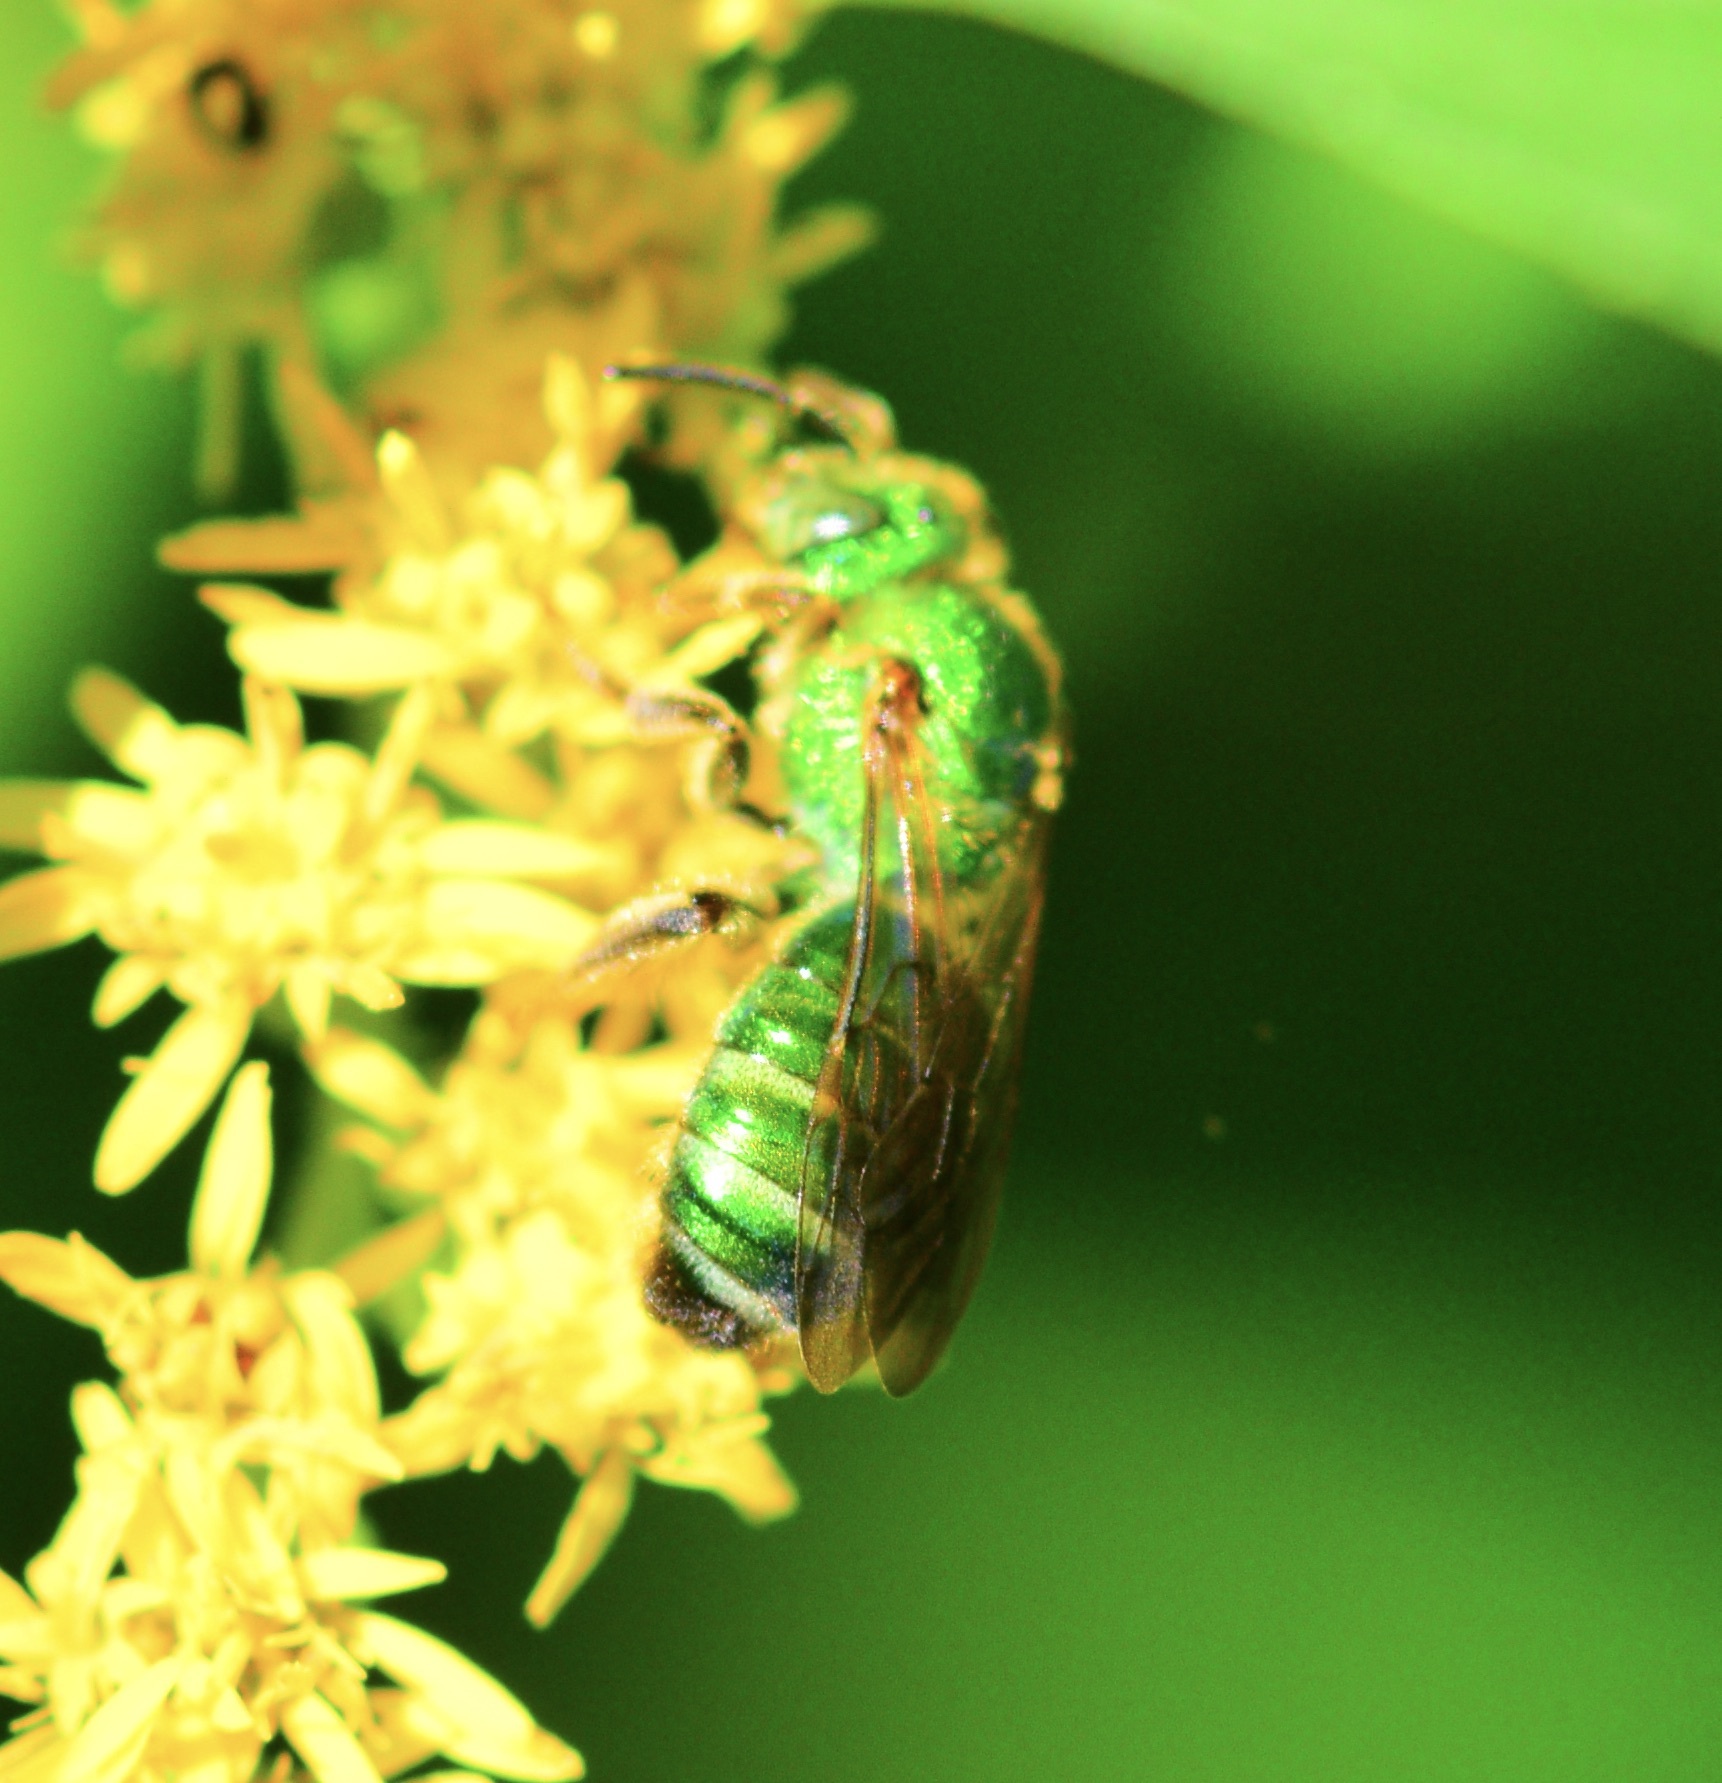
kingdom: Animalia
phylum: Arthropoda
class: Insecta
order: Hymenoptera
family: Halictidae
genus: Agapostemon
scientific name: Agapostemon sericeus
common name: Silky striped sweat bee
